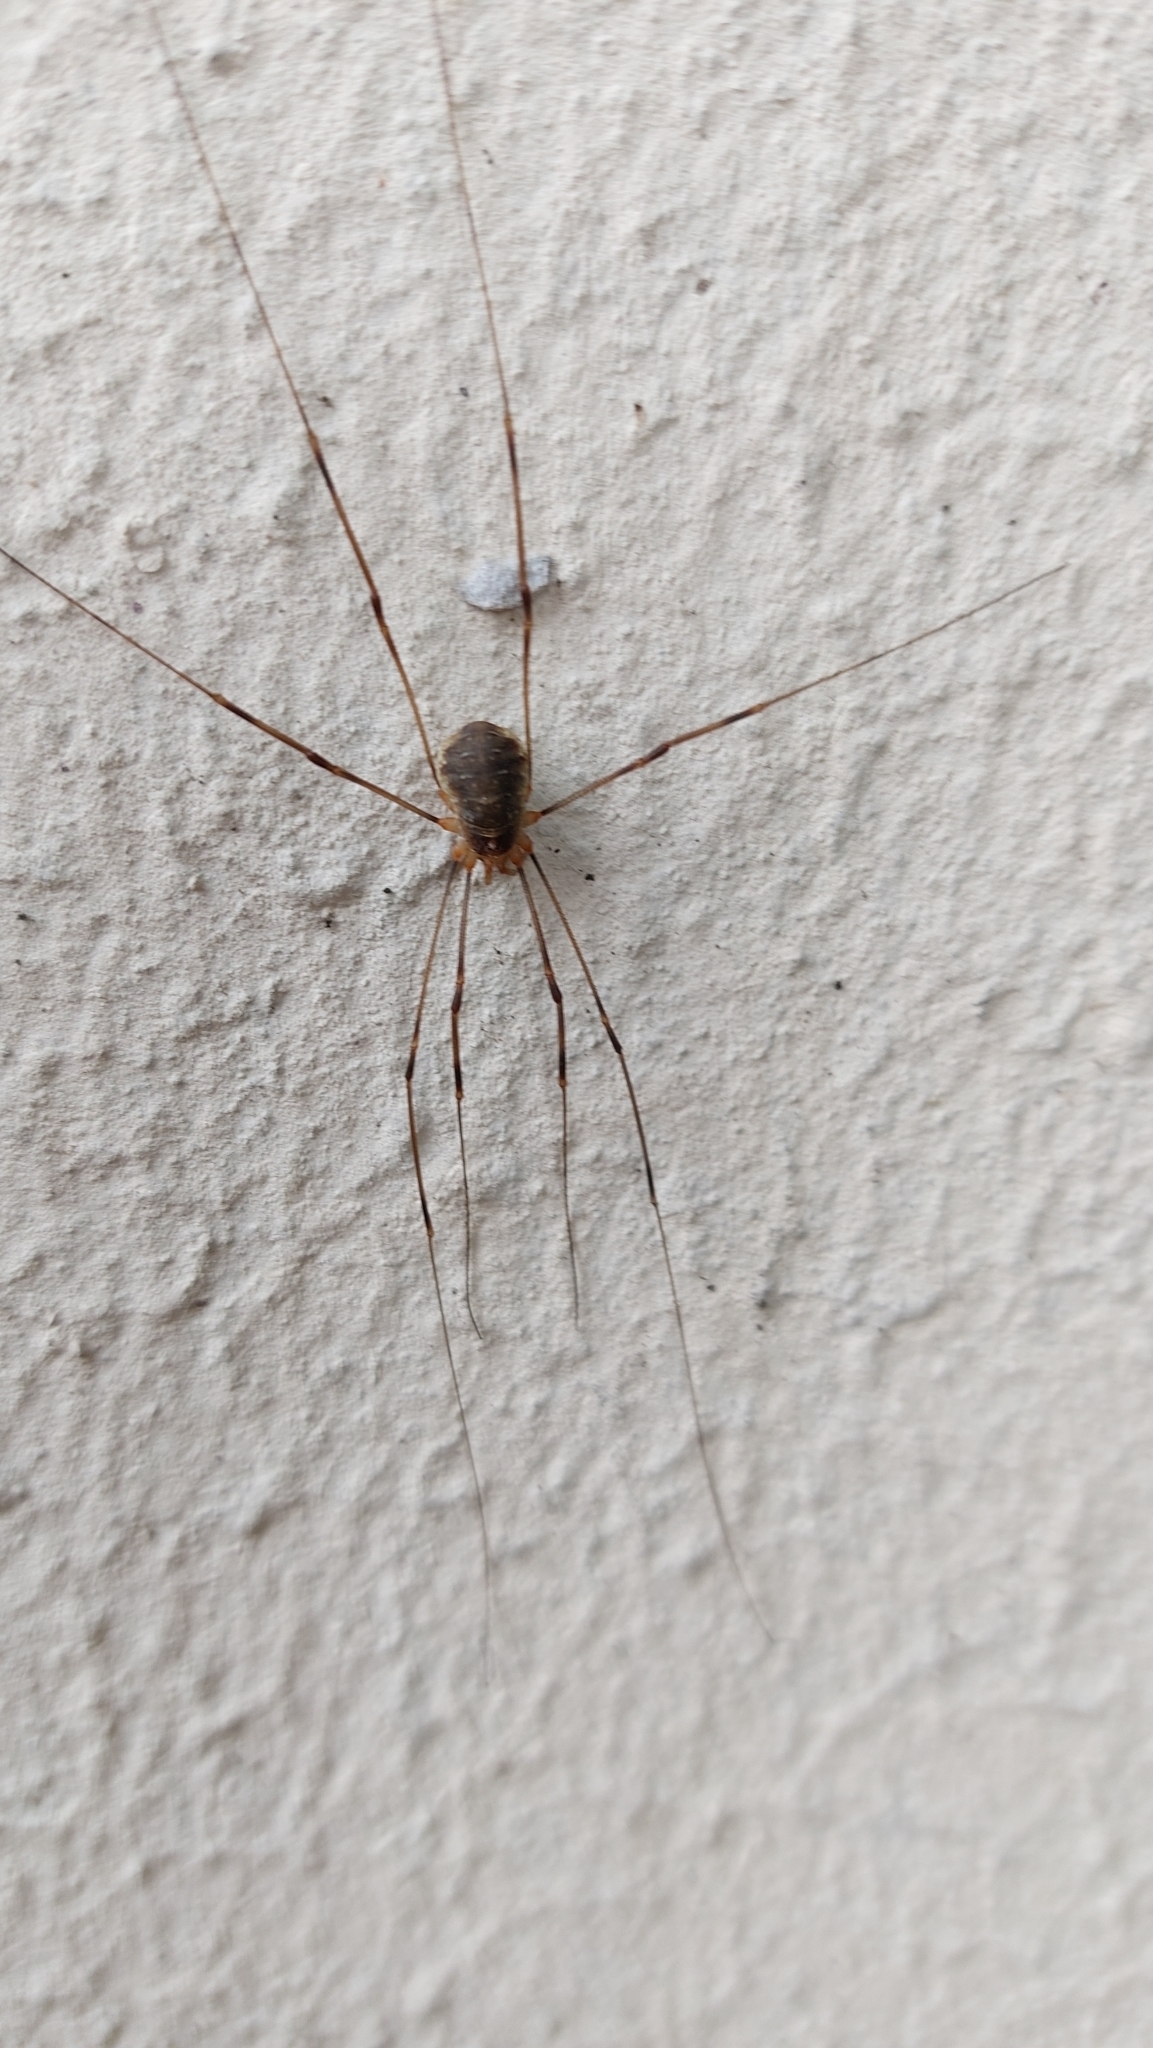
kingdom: Animalia
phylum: Arthropoda
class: Arachnida
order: Opiliones
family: Phalangiidae
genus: Opilio
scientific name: Opilio canestrinii
